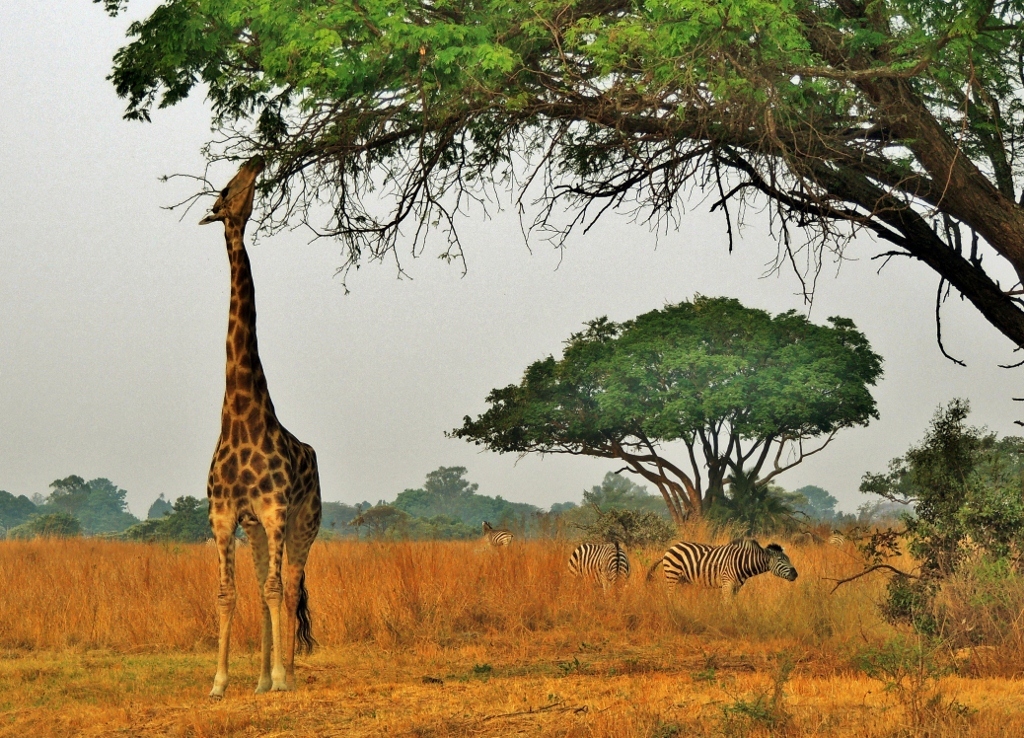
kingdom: Animalia
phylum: Chordata
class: Mammalia
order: Artiodactyla
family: Giraffidae
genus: Giraffa
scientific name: Giraffa giraffa
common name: Southern giraffe
